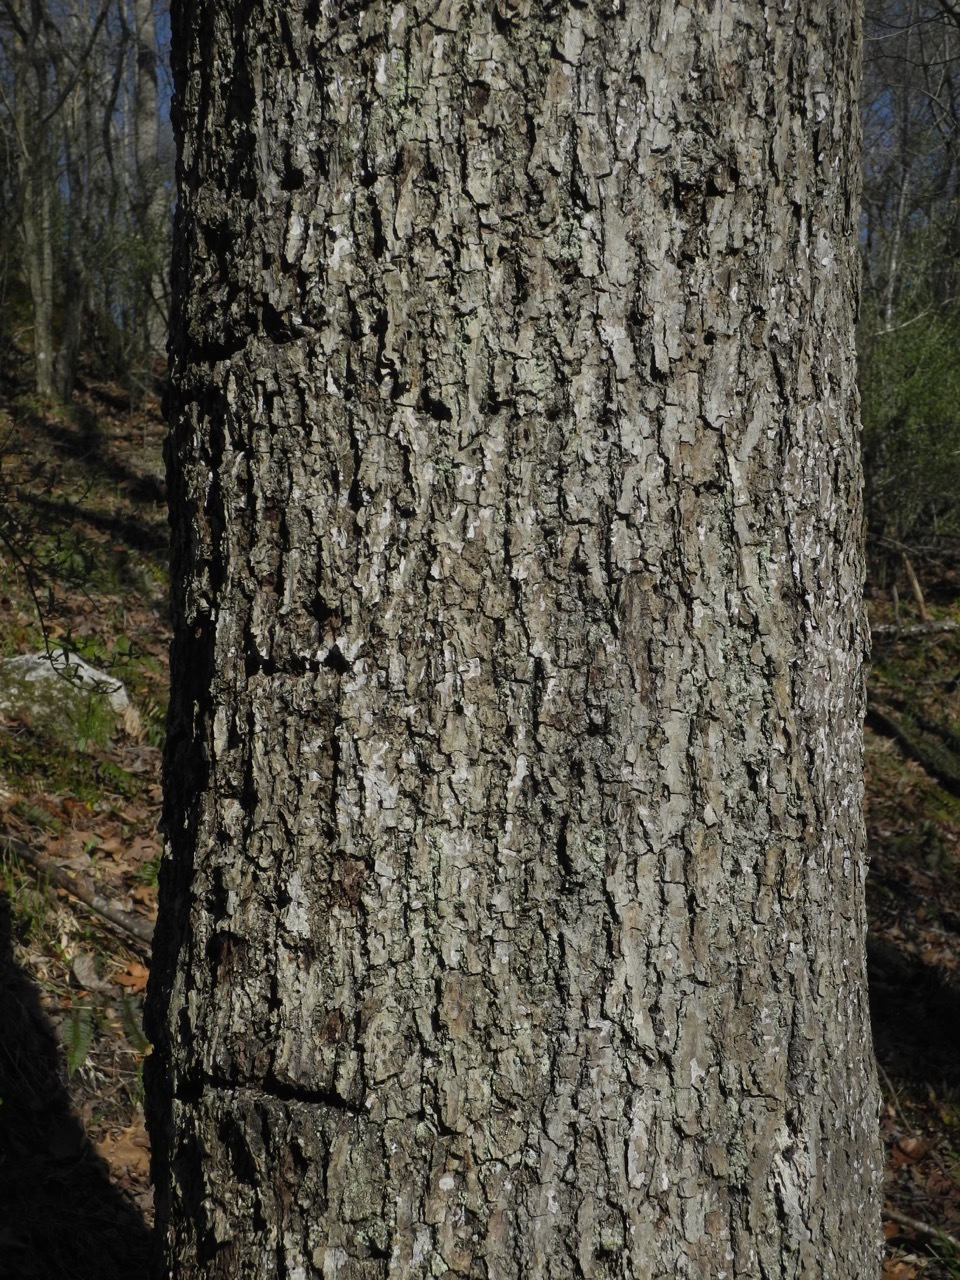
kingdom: Plantae
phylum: Tracheophyta
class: Magnoliopsida
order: Fagales
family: Juglandaceae
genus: Carya
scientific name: Carya alba
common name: Mockernut hickory
